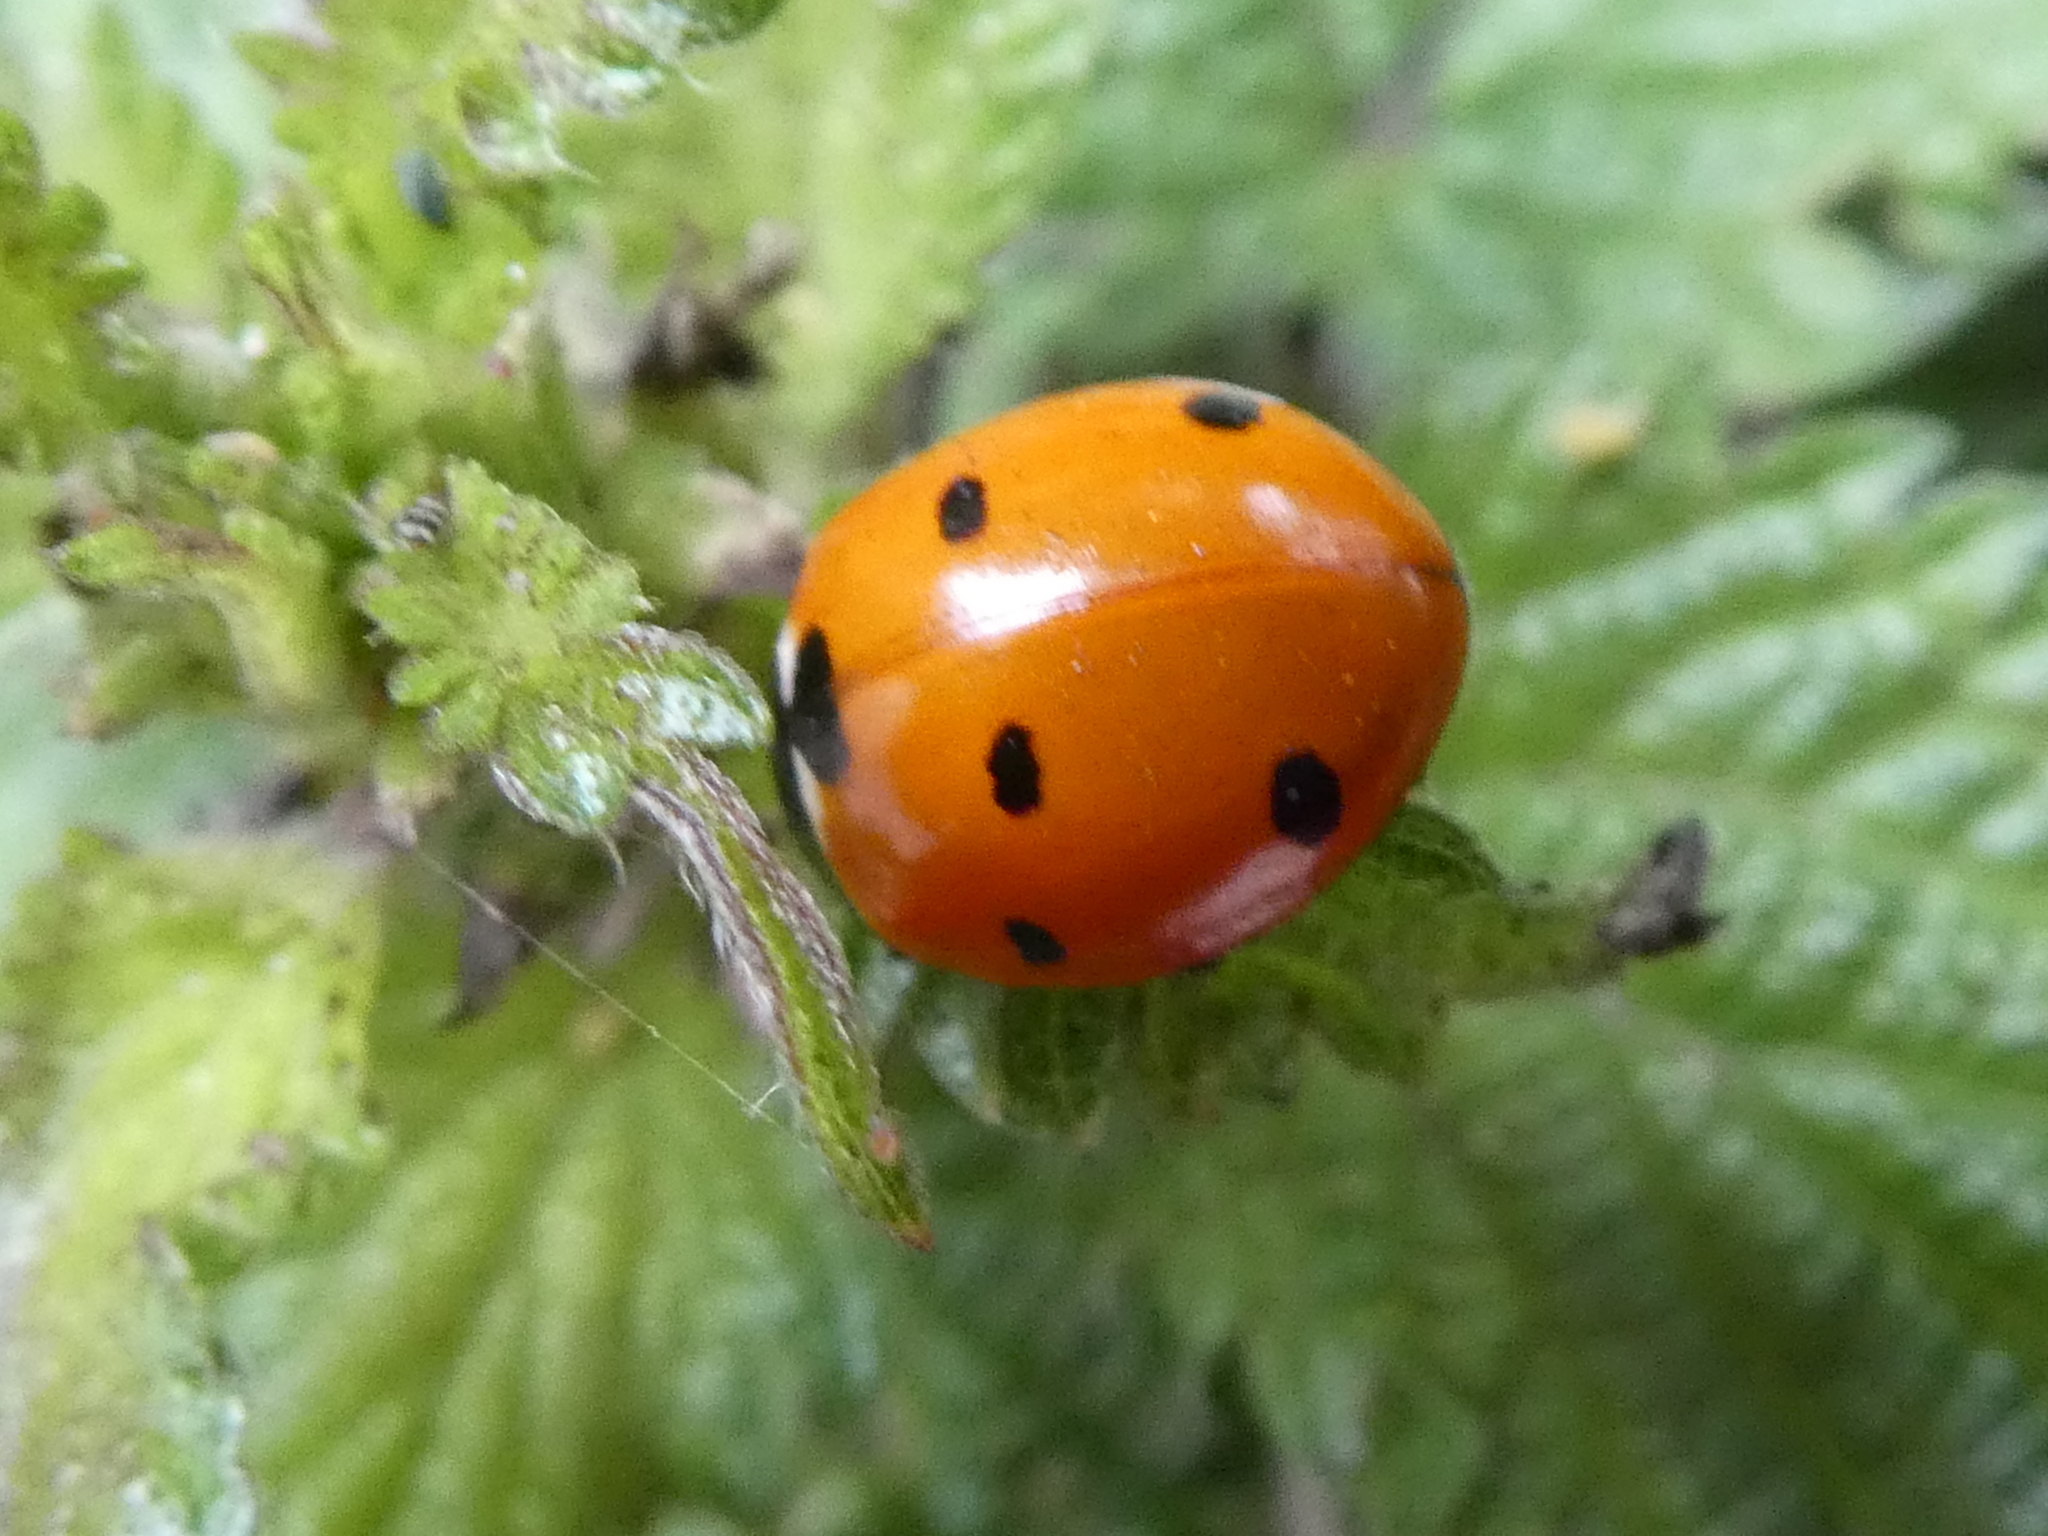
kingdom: Animalia
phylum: Arthropoda
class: Insecta
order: Coleoptera
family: Coccinellidae
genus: Coccinella
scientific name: Coccinella septempunctata
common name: Sevenspotted lady beetle
